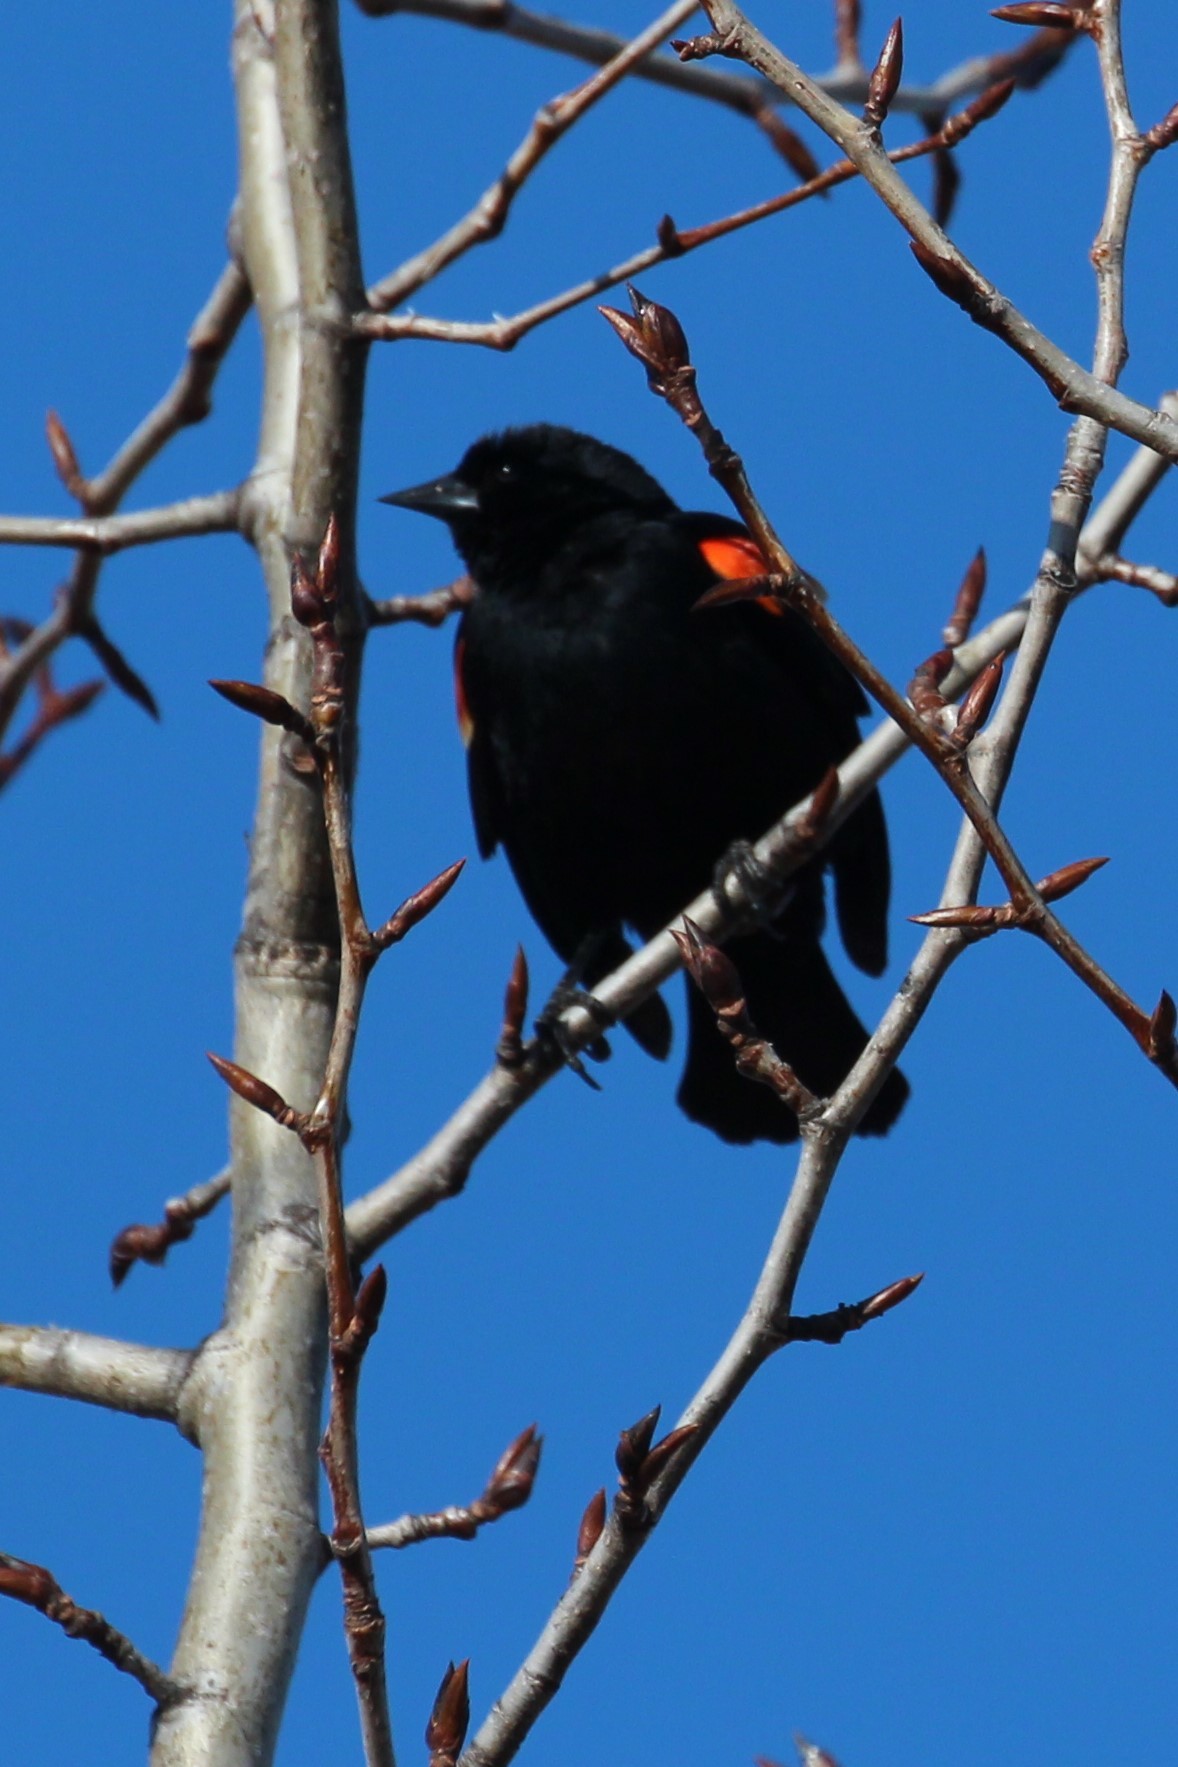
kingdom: Animalia
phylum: Chordata
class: Aves
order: Passeriformes
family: Icteridae
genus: Agelaius
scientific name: Agelaius phoeniceus
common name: Red-winged blackbird
